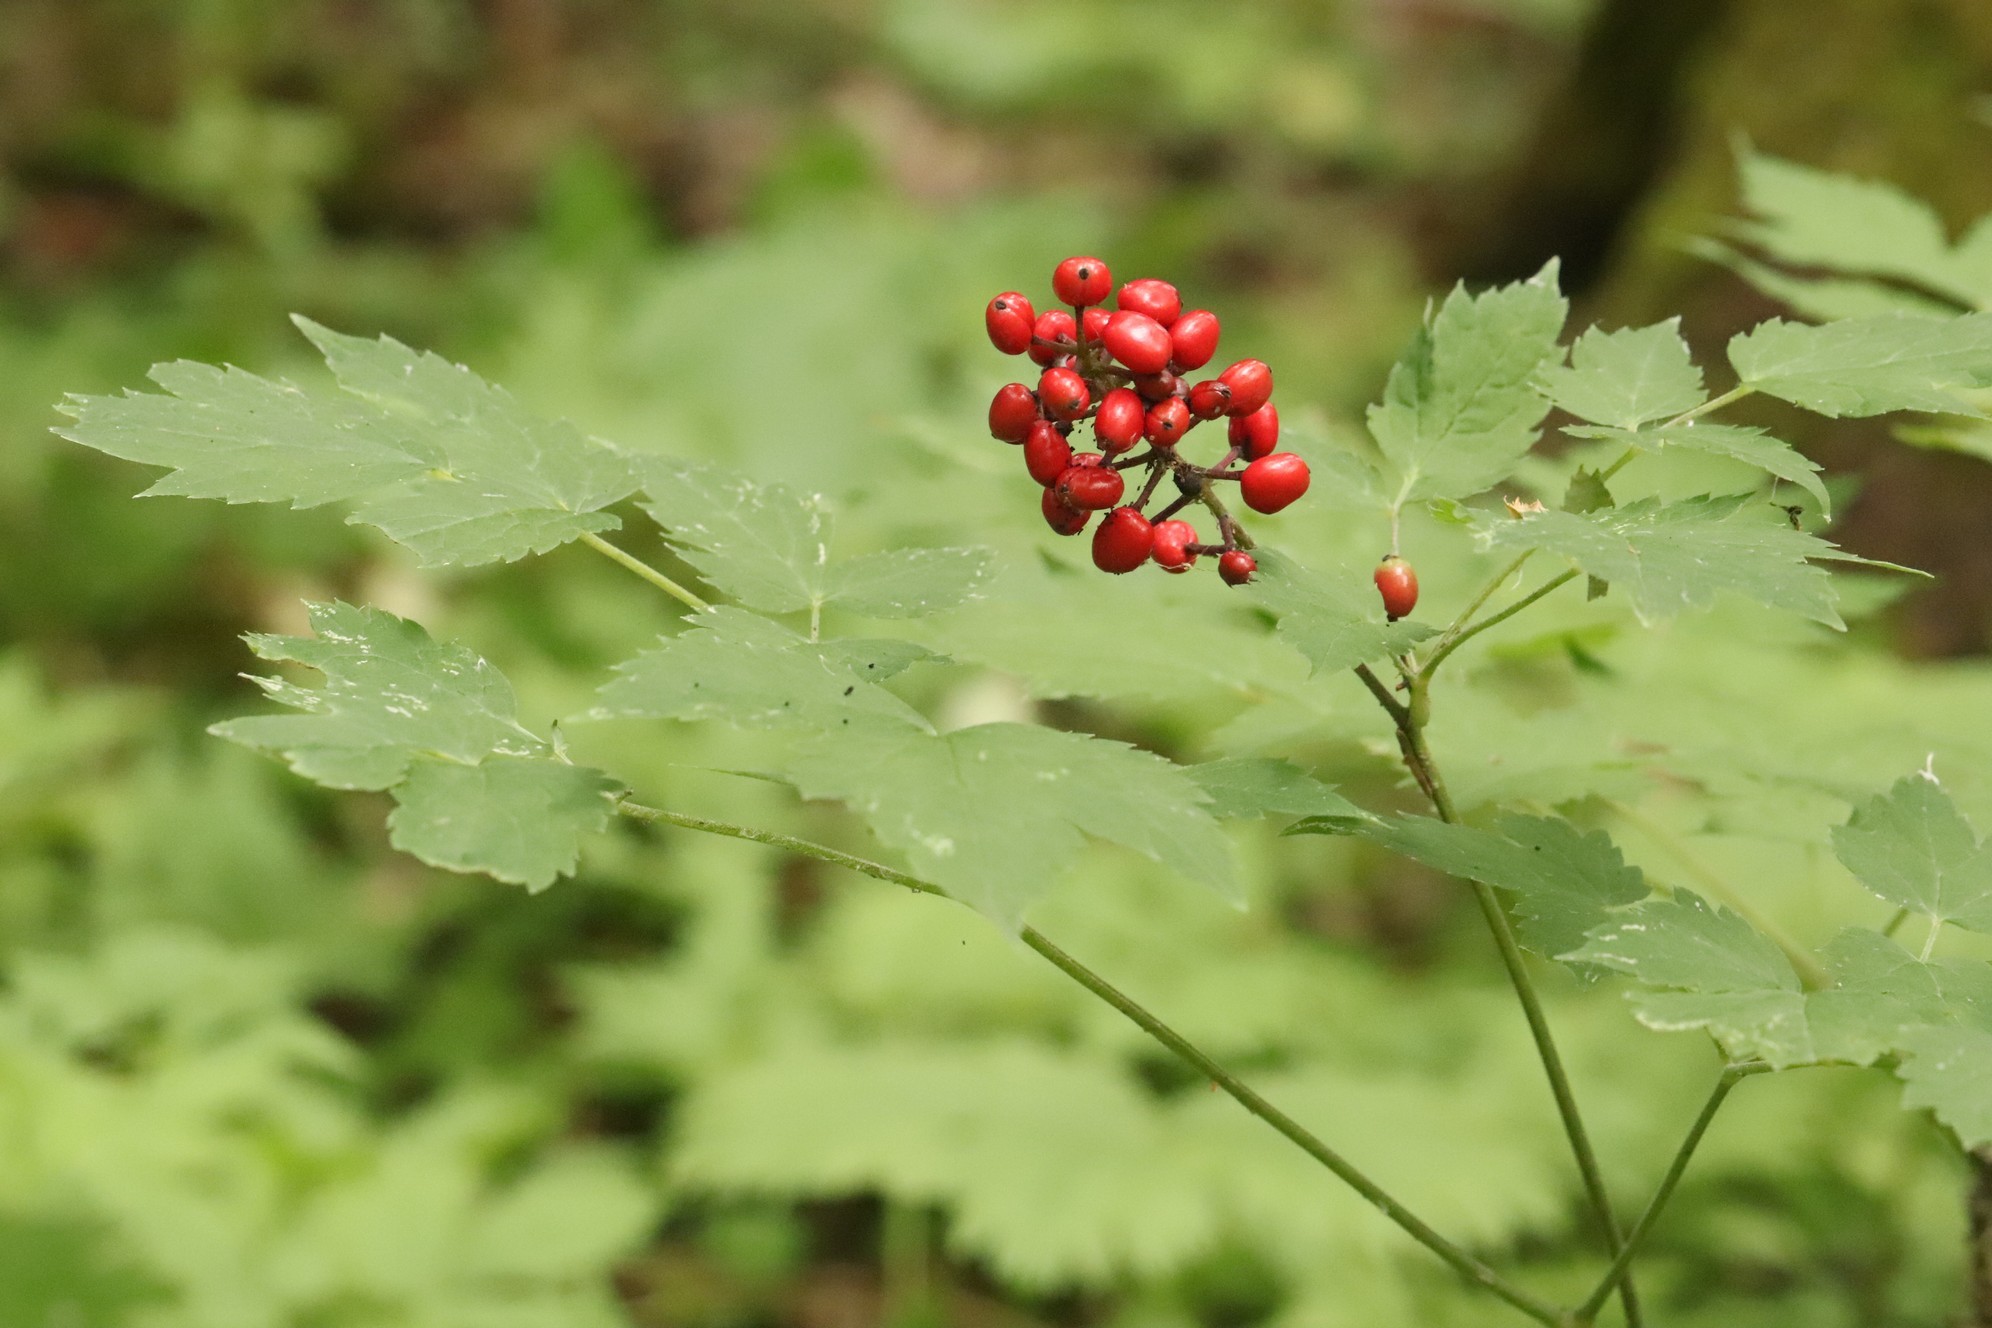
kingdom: Plantae
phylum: Tracheophyta
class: Magnoliopsida
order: Ranunculales
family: Ranunculaceae
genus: Actaea
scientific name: Actaea erythrocarpa
